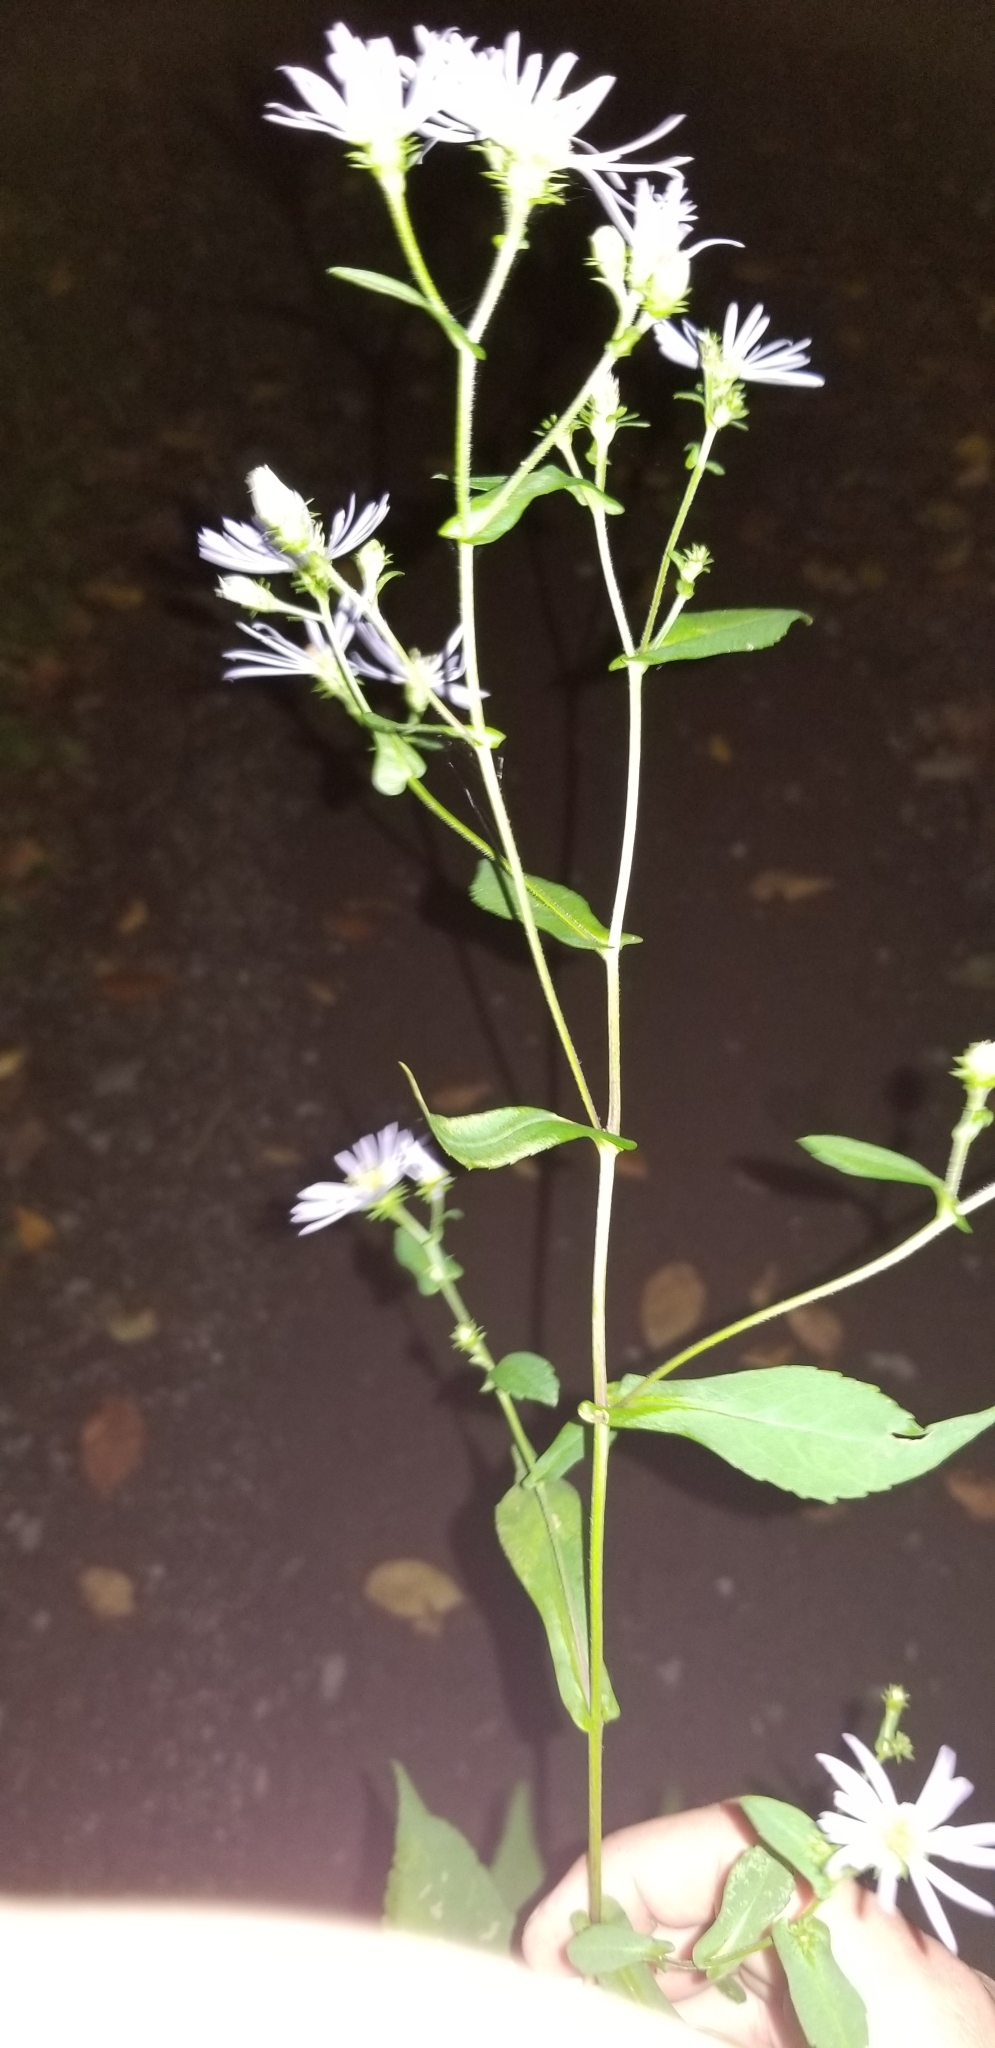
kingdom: Plantae
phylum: Tracheophyta
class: Magnoliopsida
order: Asterales
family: Asteraceae
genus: Symphyotrichum
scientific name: Symphyotrichum prenanthoides
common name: Crooked-stem aster
